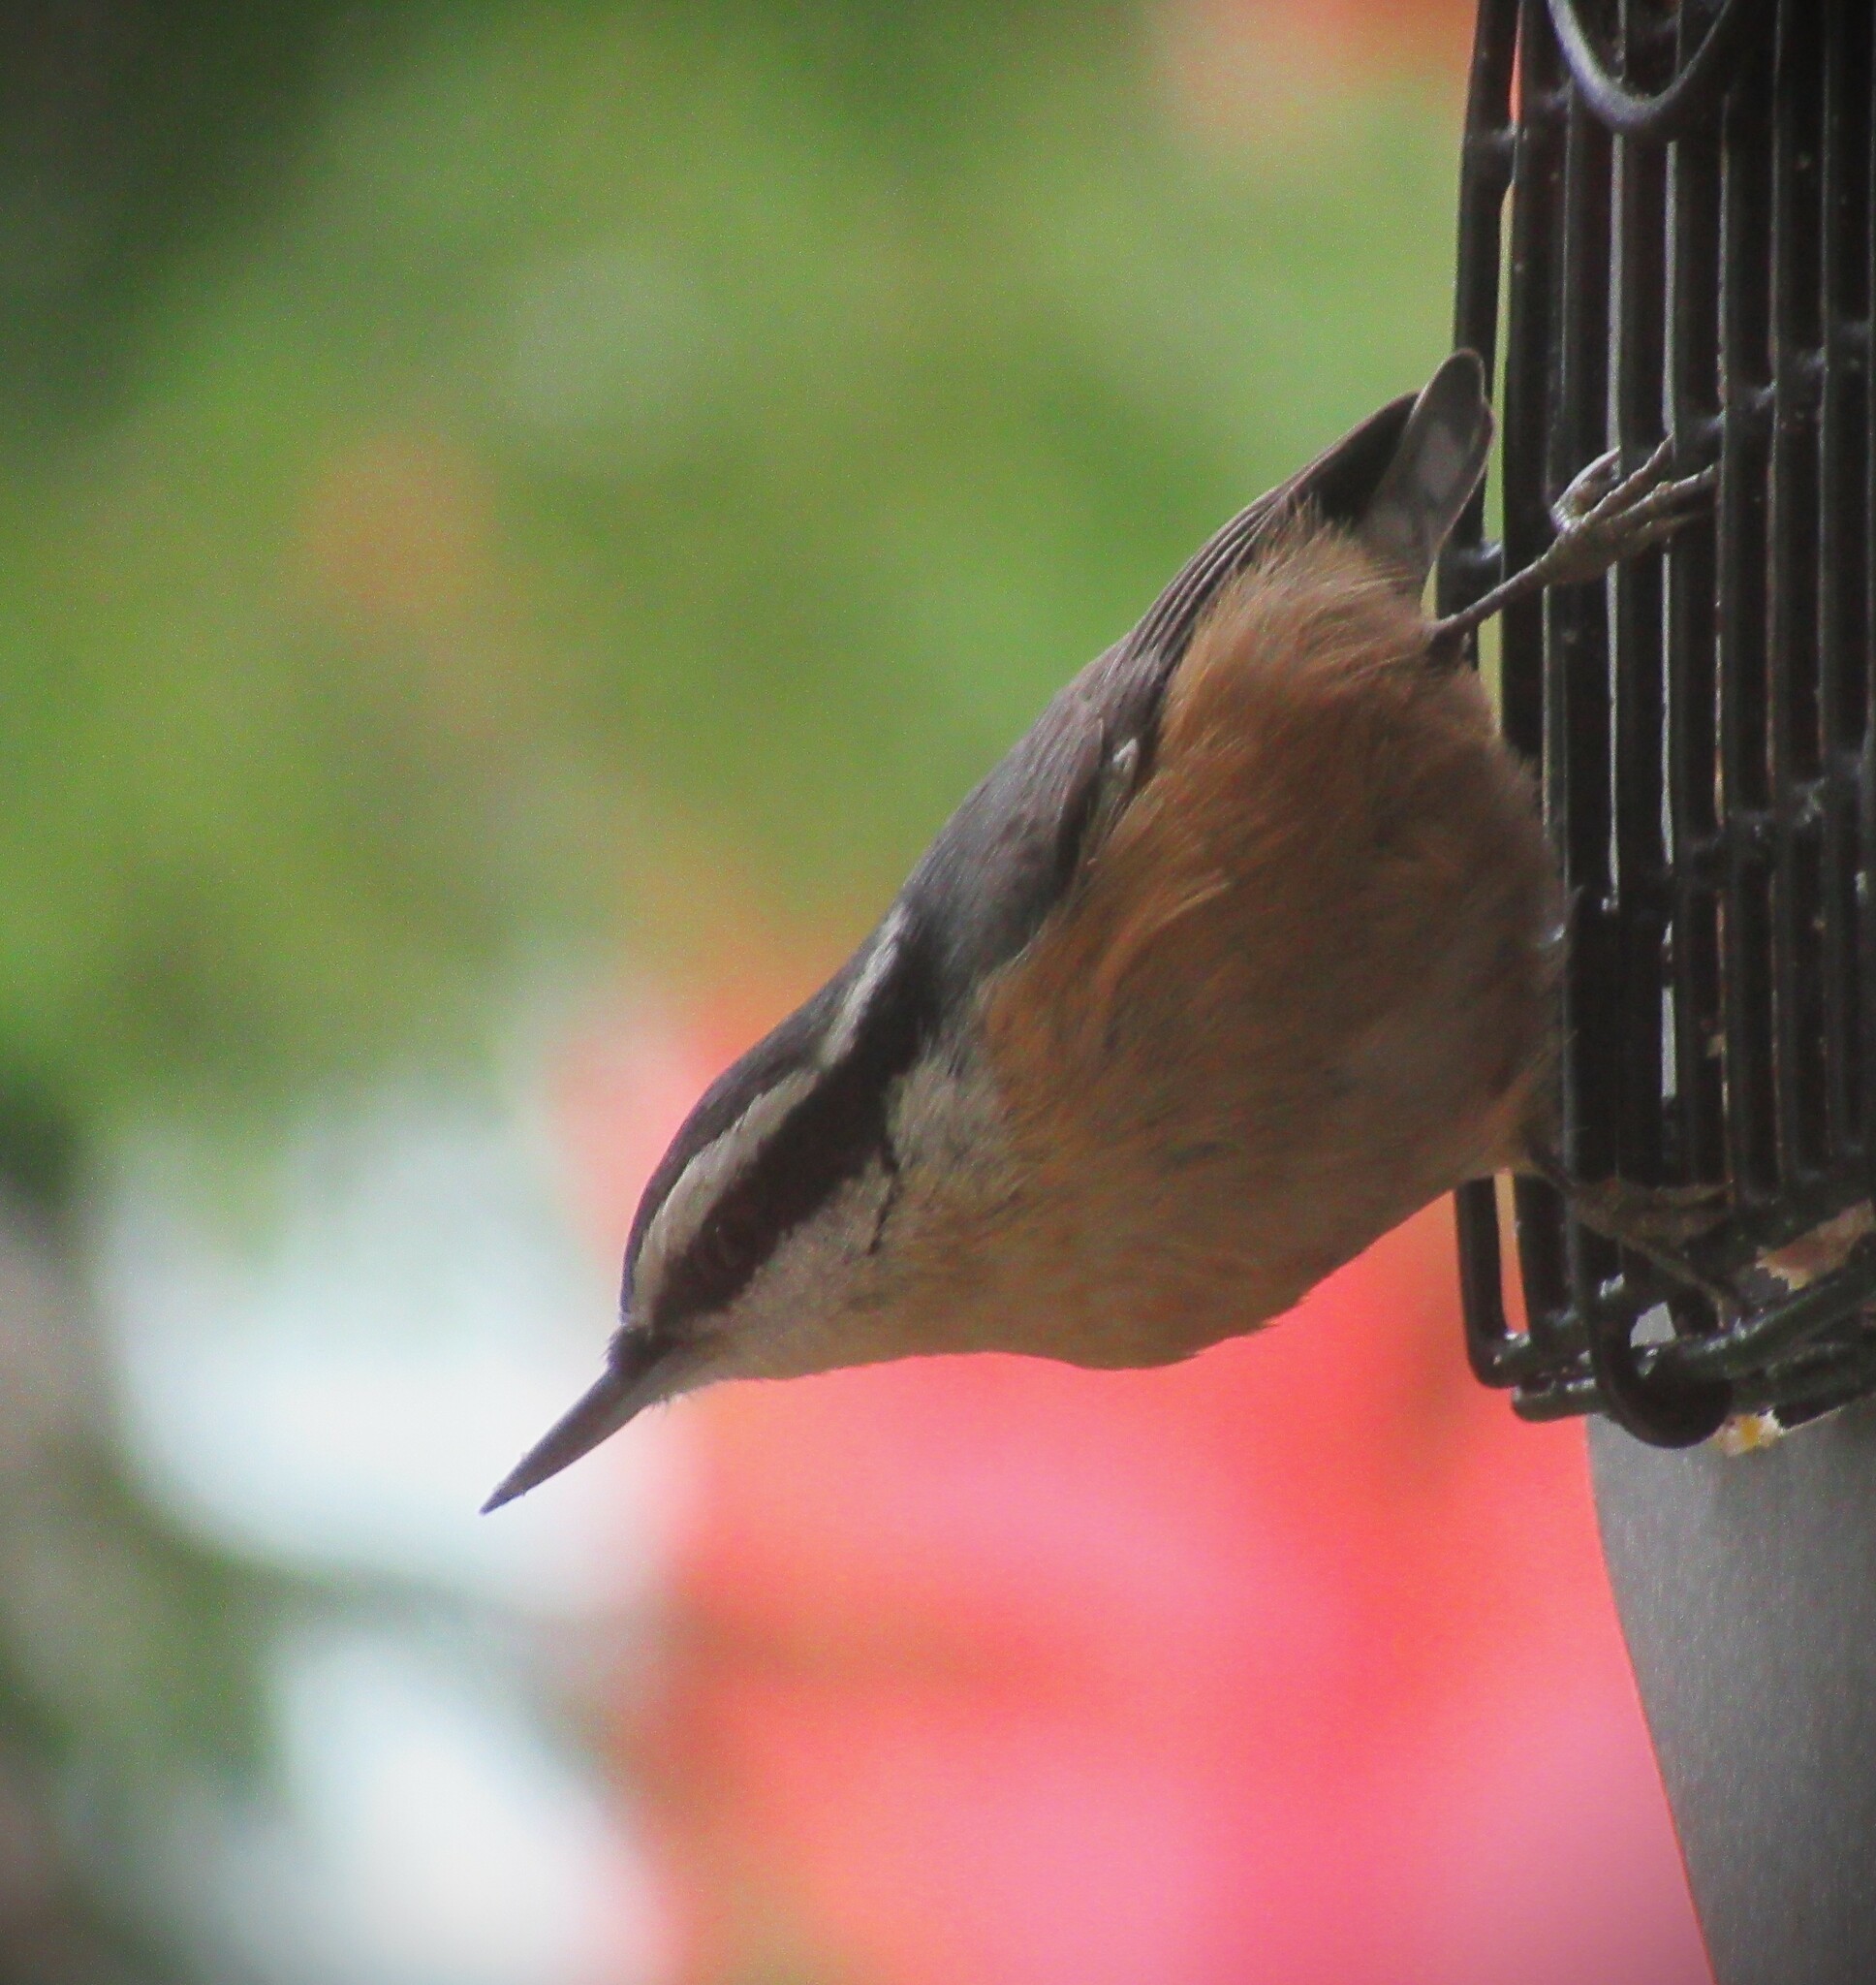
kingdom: Animalia
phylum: Chordata
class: Aves
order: Passeriformes
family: Sittidae
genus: Sitta
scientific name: Sitta canadensis
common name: Red-breasted nuthatch
